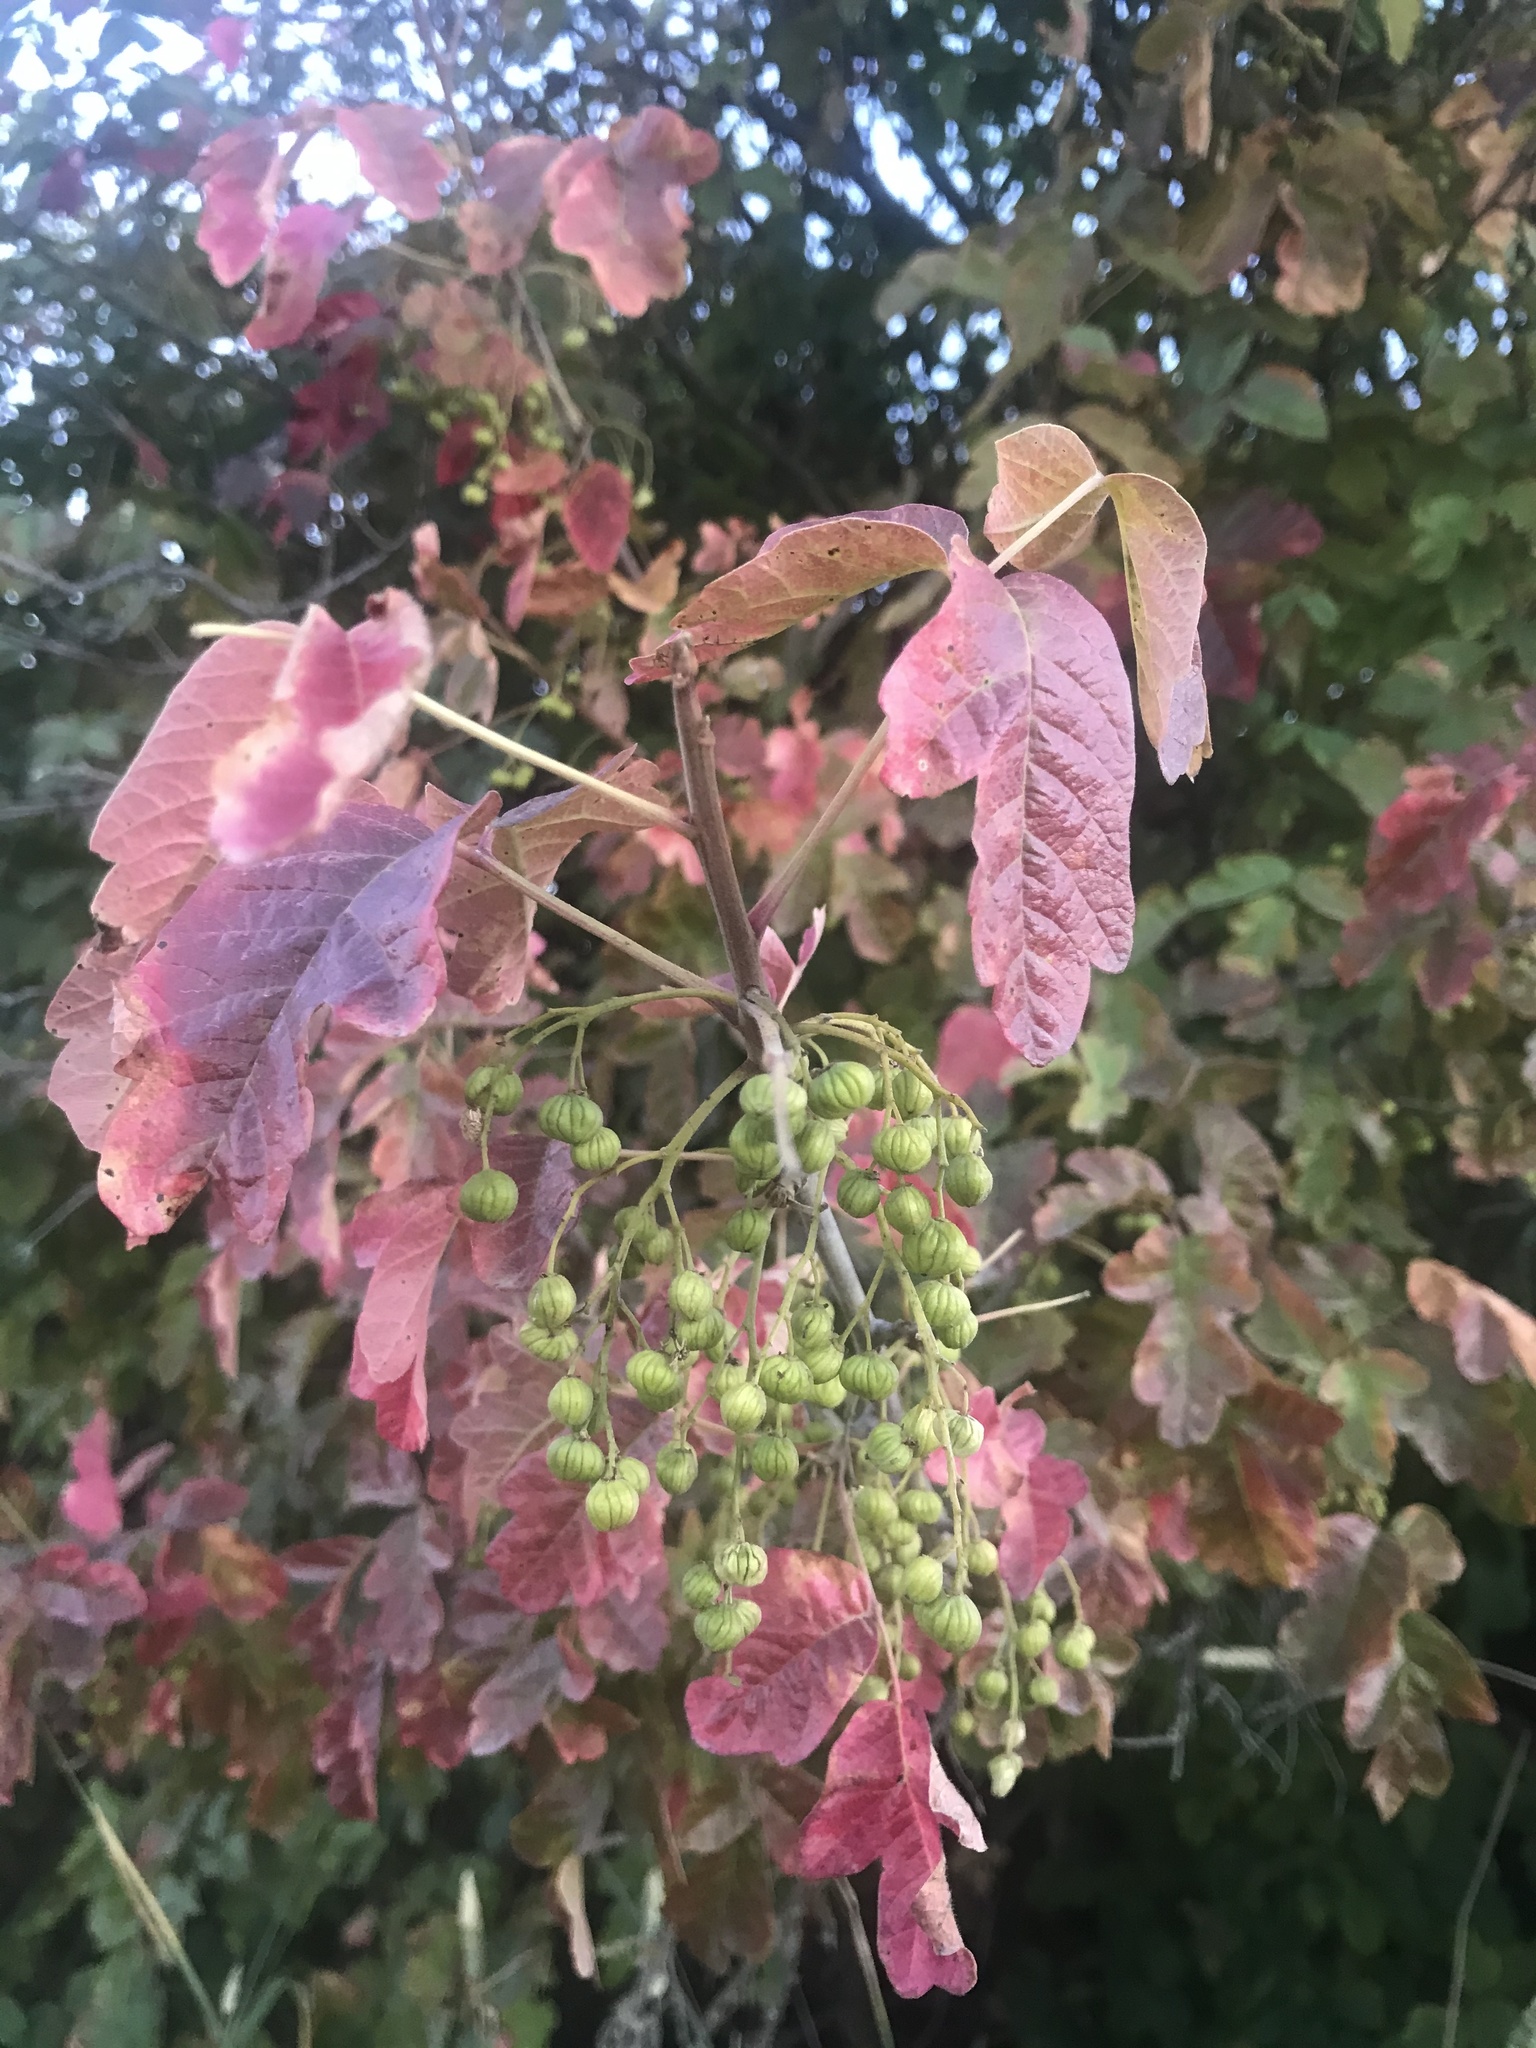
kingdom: Plantae
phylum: Tracheophyta
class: Magnoliopsida
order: Sapindales
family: Anacardiaceae
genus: Toxicodendron
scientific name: Toxicodendron diversilobum
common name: Pacific poison-oak
